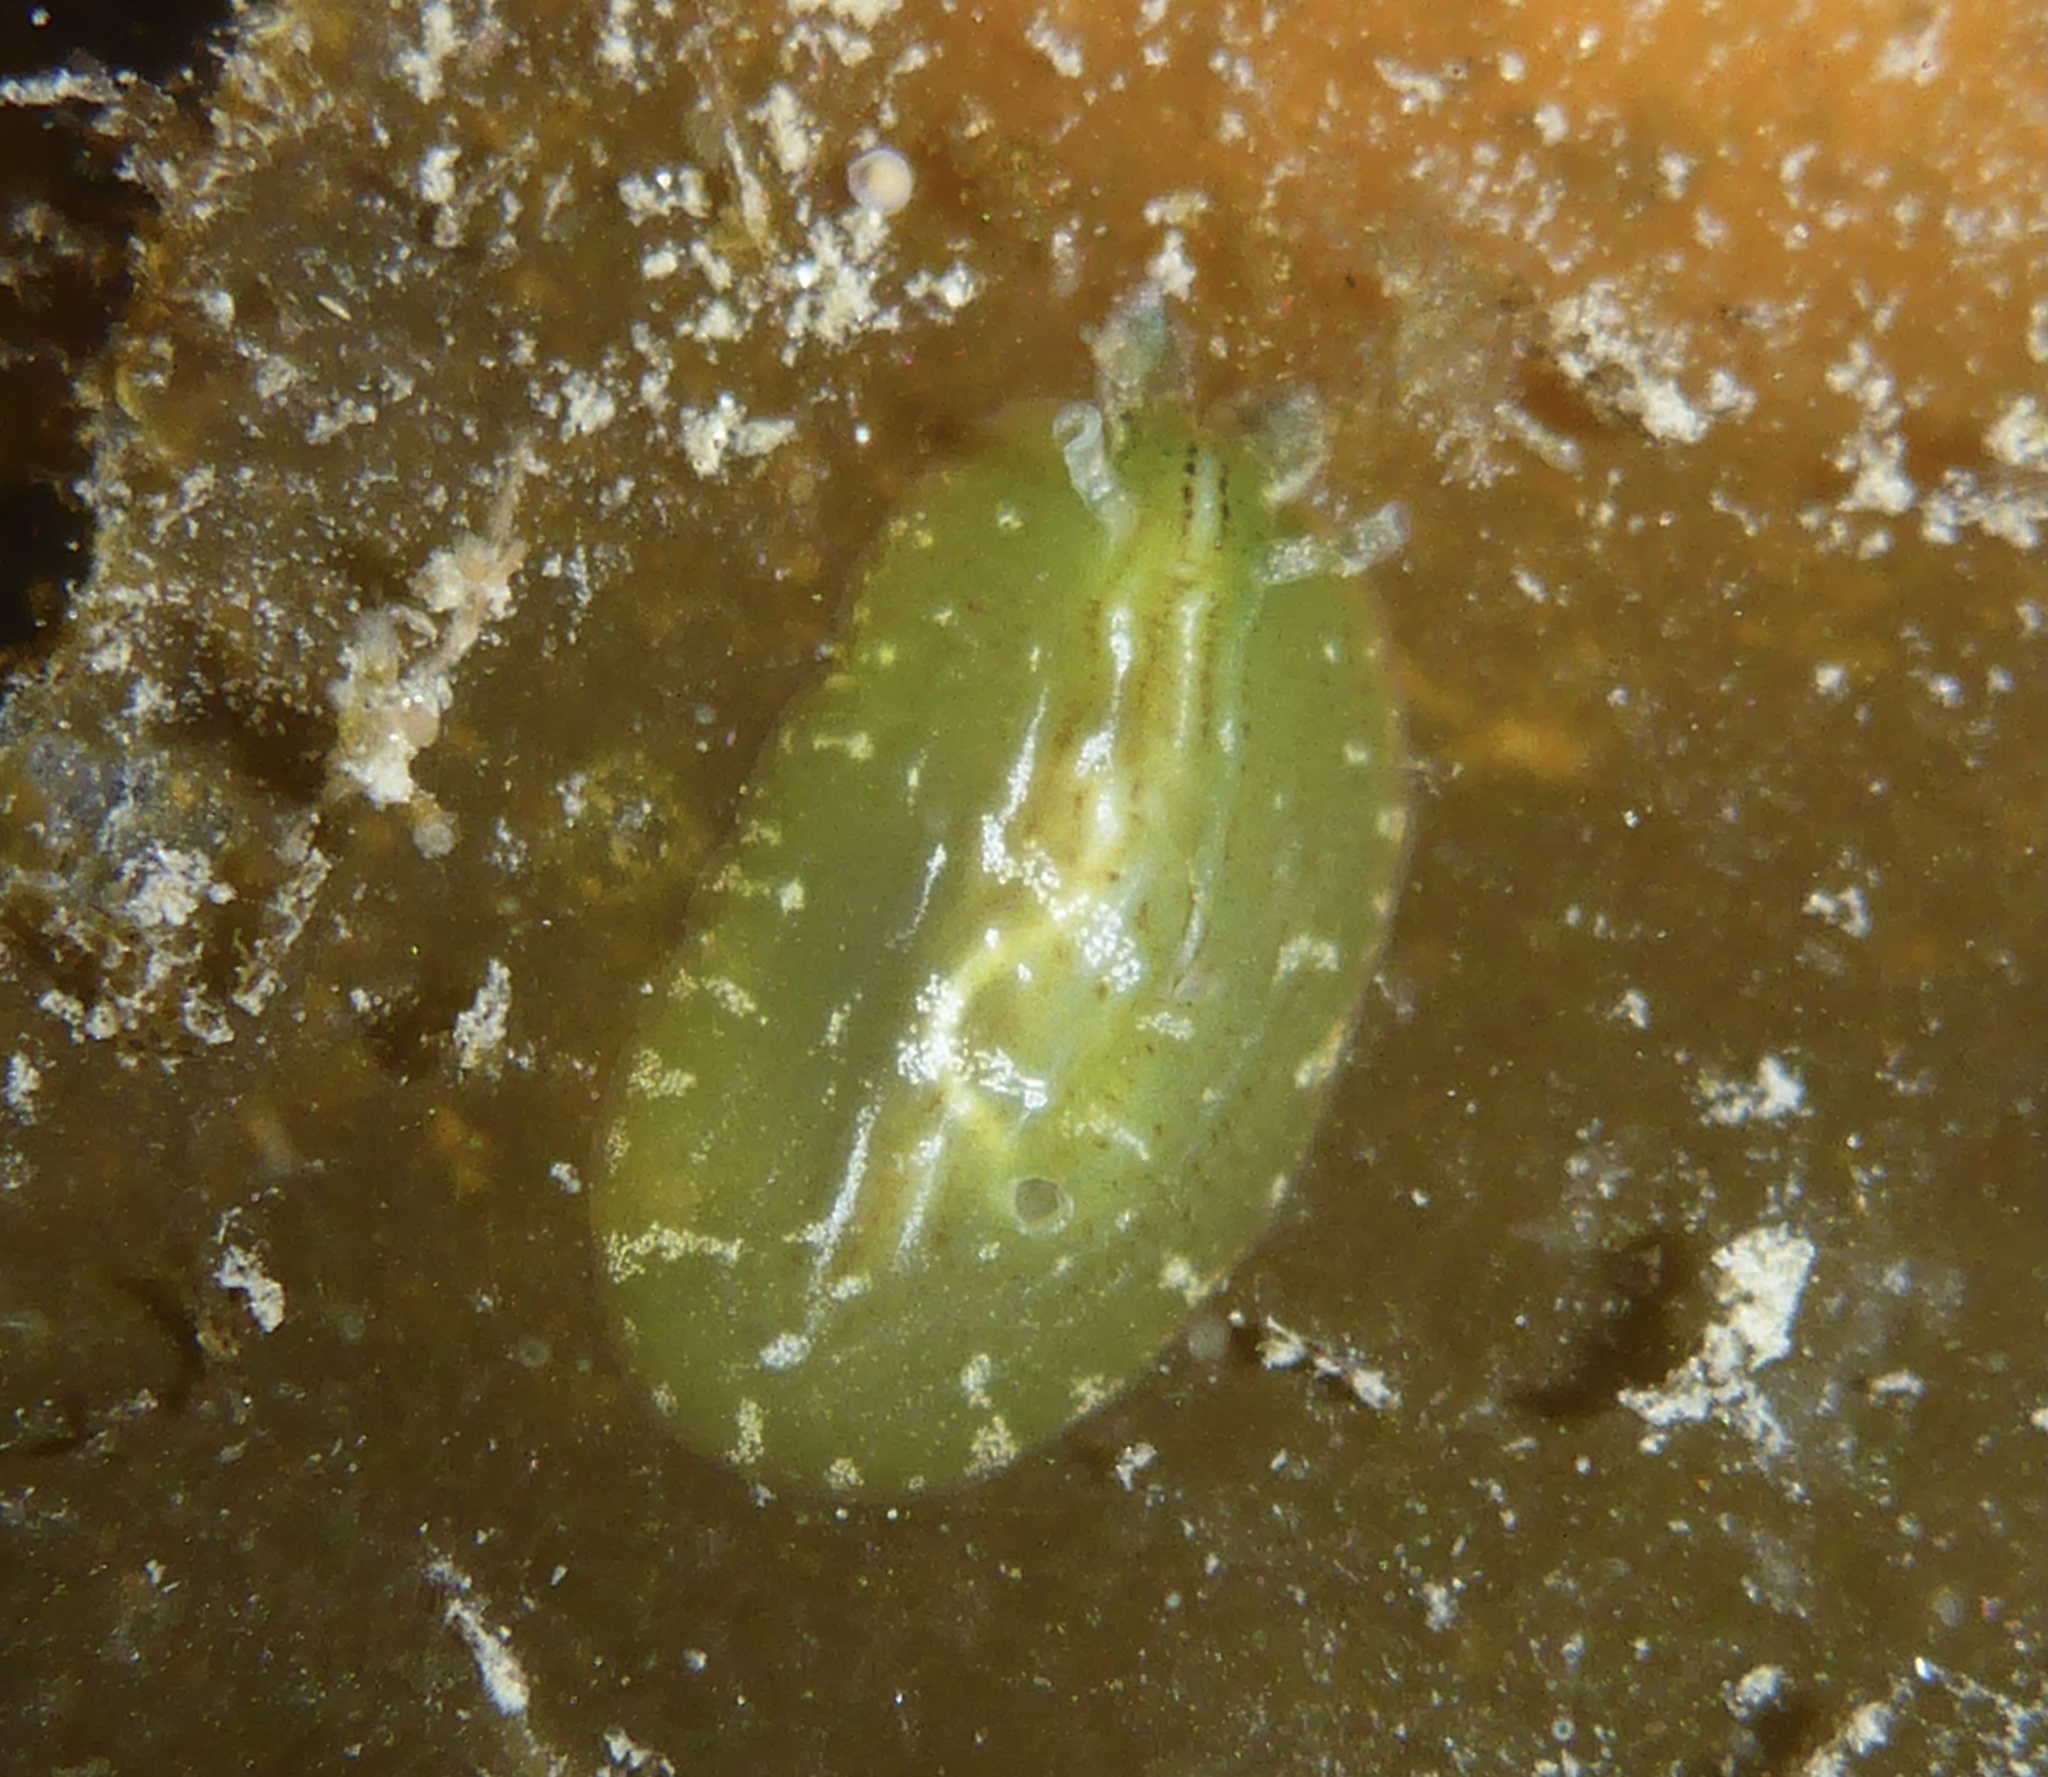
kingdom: Animalia
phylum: Mollusca
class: Gastropoda
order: Aplysiida
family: Aplysiidae
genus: Phyllaplysia
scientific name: Phyllaplysia taylori
